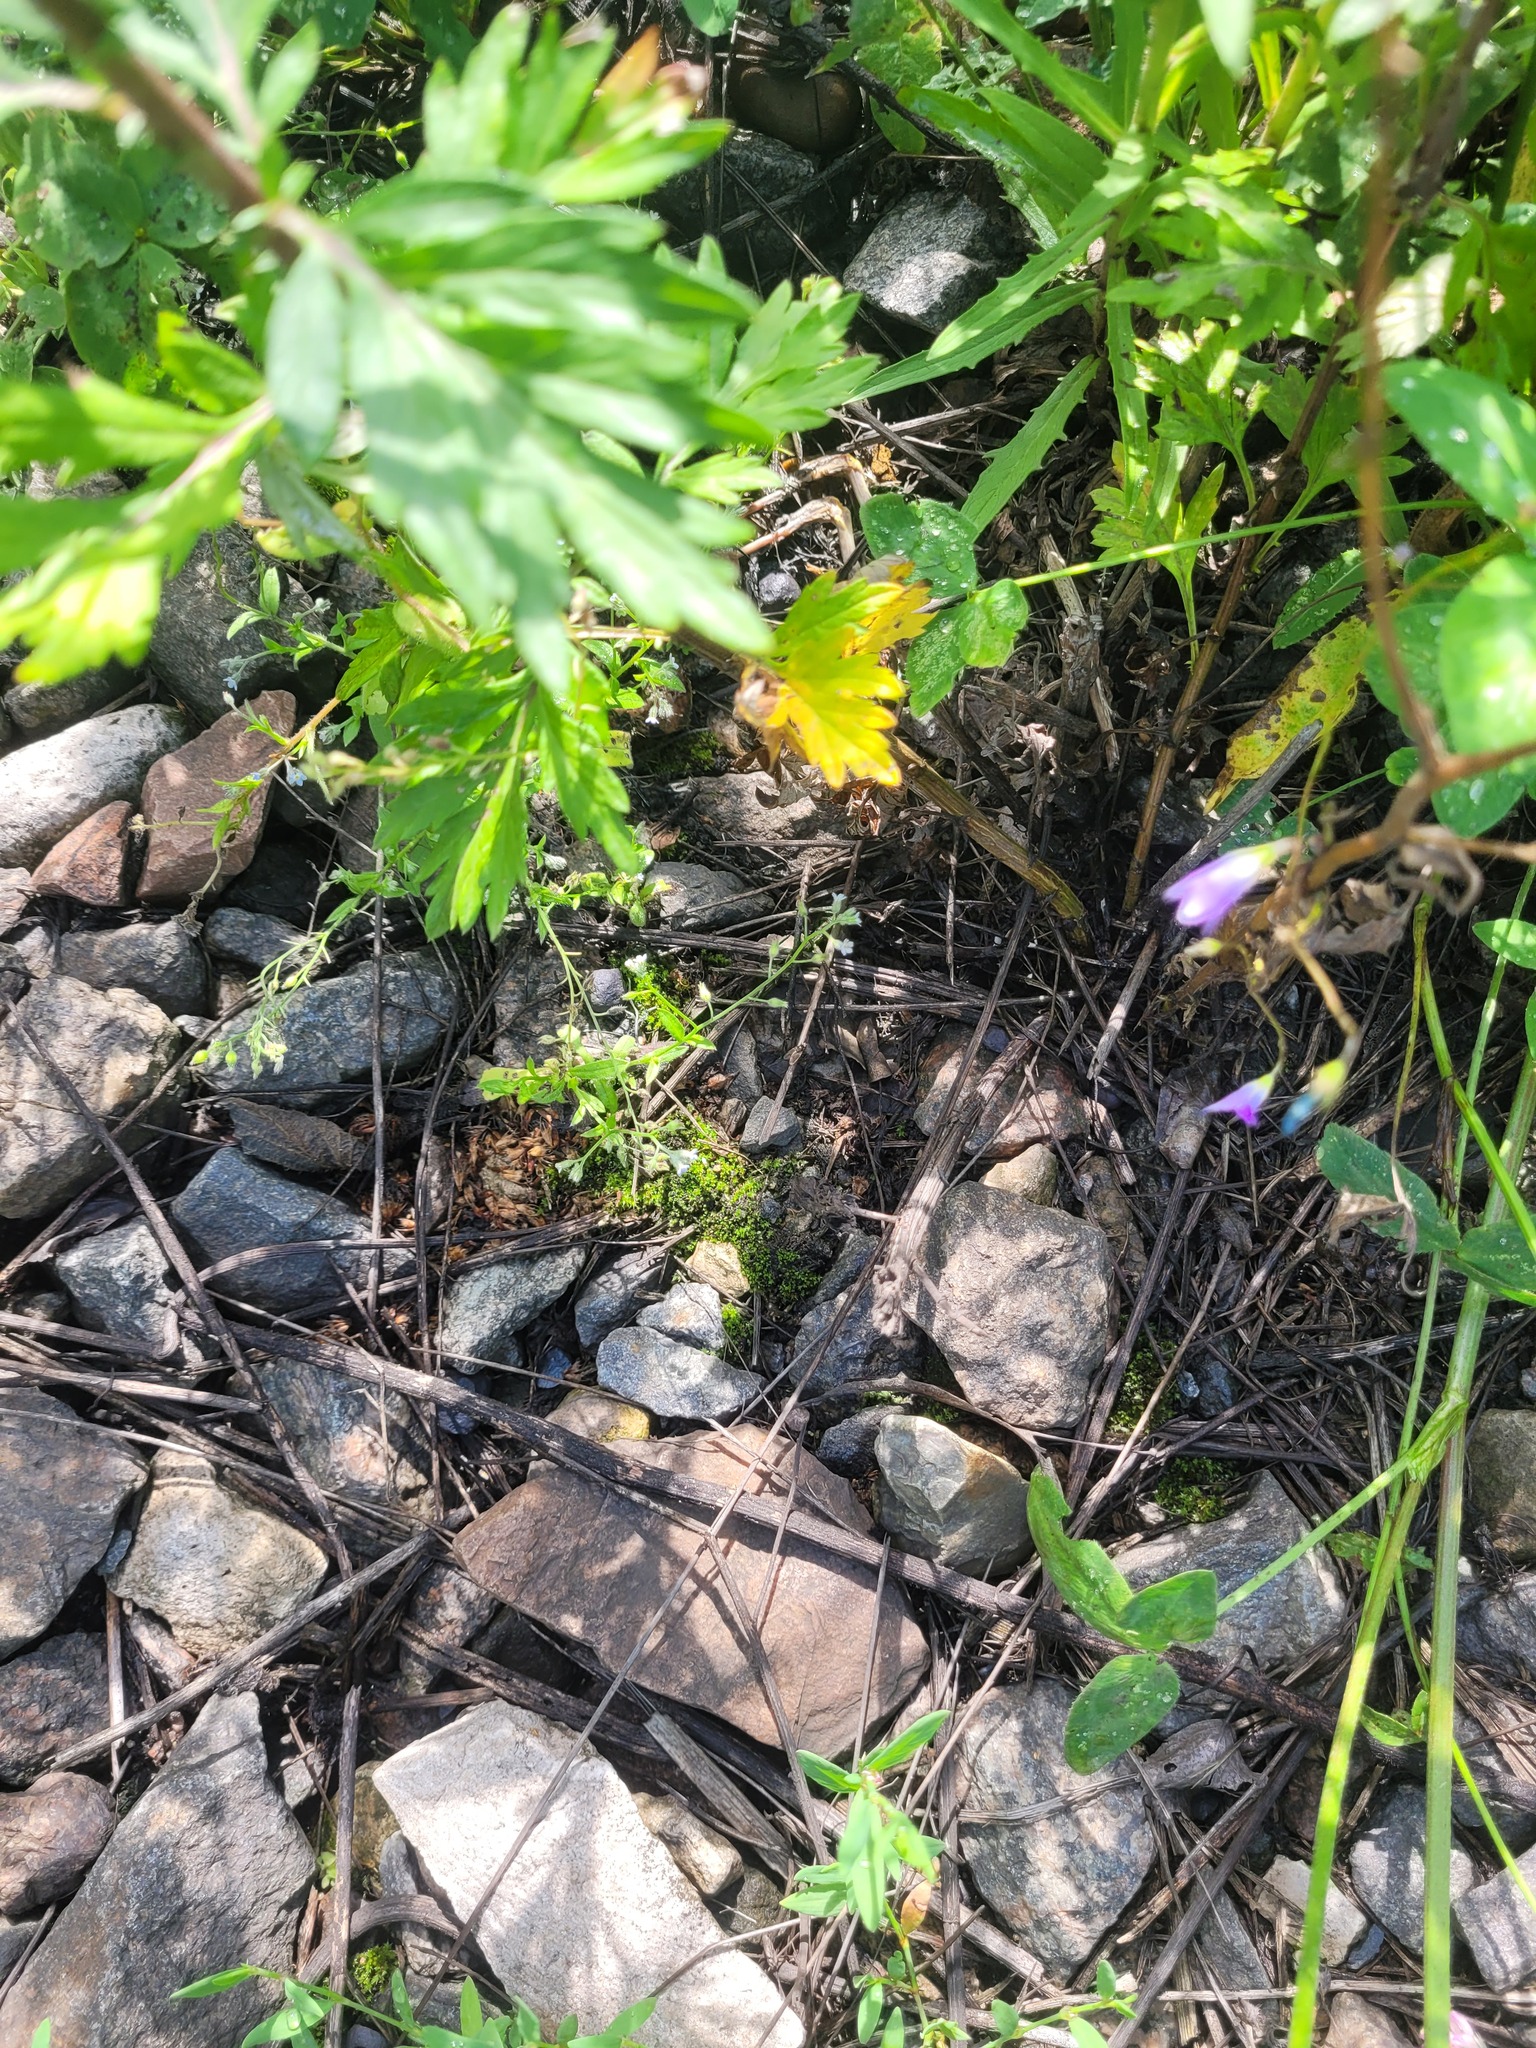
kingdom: Plantae
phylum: Tracheophyta
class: Magnoliopsida
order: Boraginales
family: Boraginaceae
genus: Myosotis
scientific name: Myosotis arvensis
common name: Field forget-me-not
